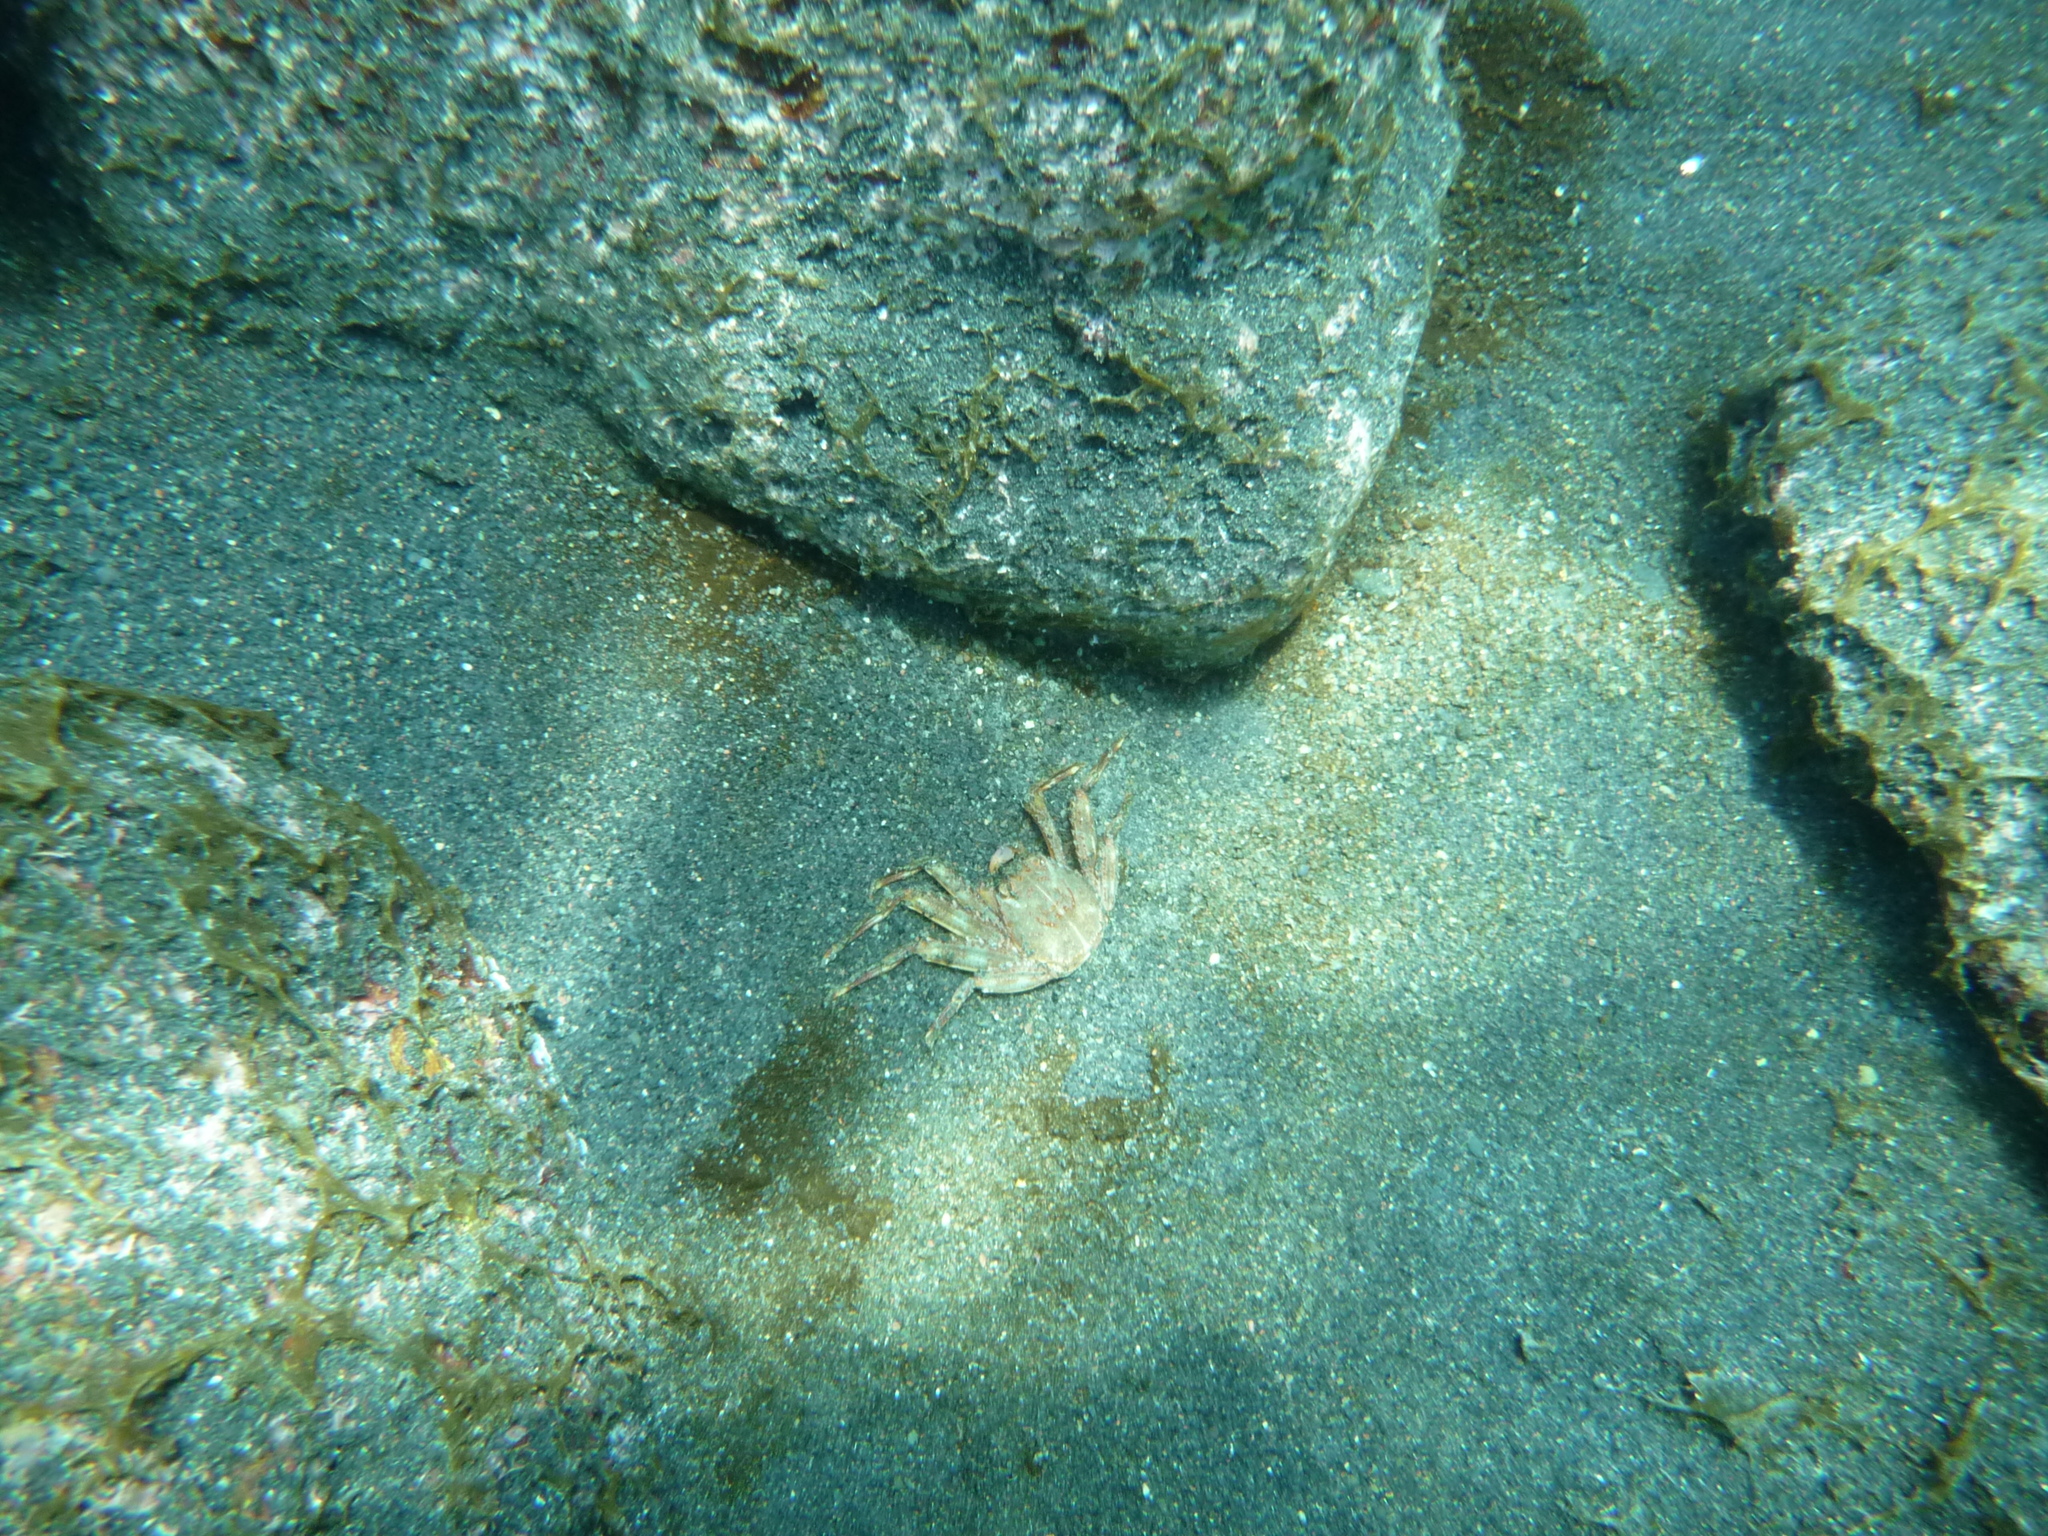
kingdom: Animalia
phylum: Arthropoda
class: Malacostraca
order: Decapoda
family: Percnidae
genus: Percnon
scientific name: Percnon gibbesi
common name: Nimble spray crab
